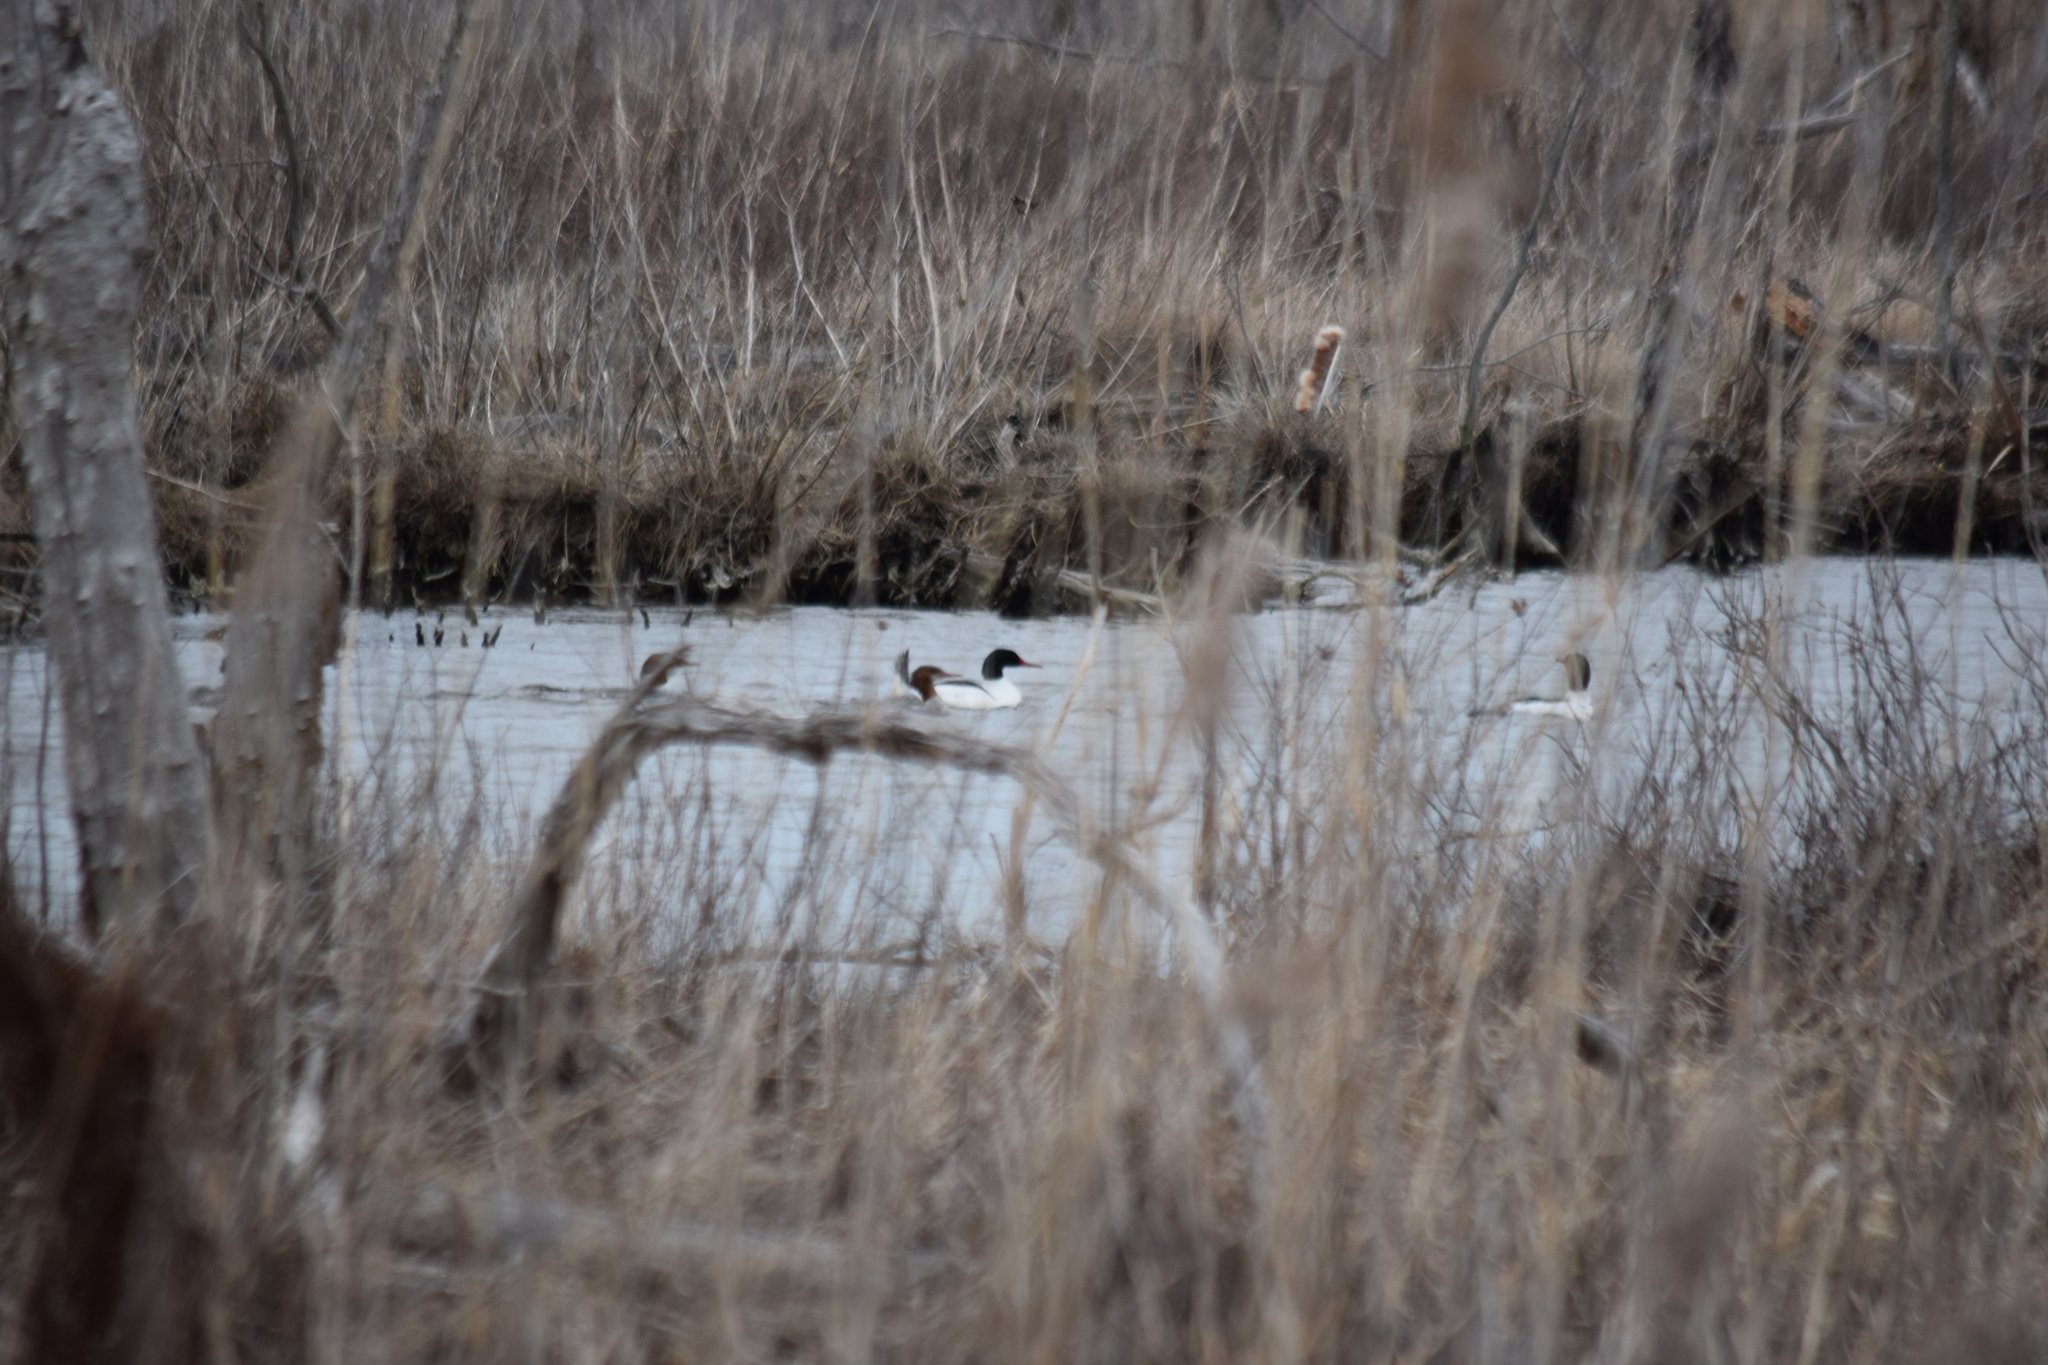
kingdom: Animalia
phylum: Chordata
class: Aves
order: Anseriformes
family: Anatidae
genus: Mergus
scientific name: Mergus merganser
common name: Common merganser
